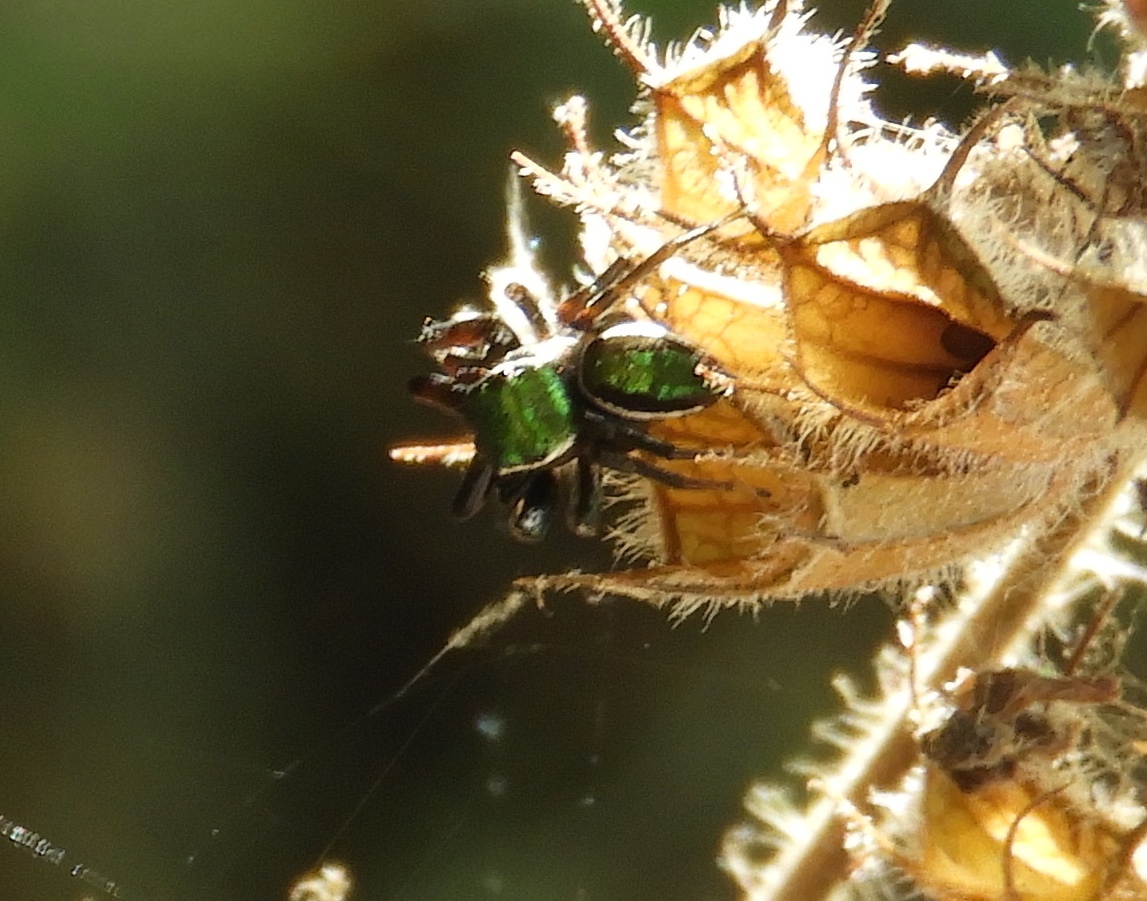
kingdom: Animalia
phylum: Arthropoda
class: Arachnida
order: Araneae
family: Salticidae
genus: Messua
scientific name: Messua limbata
